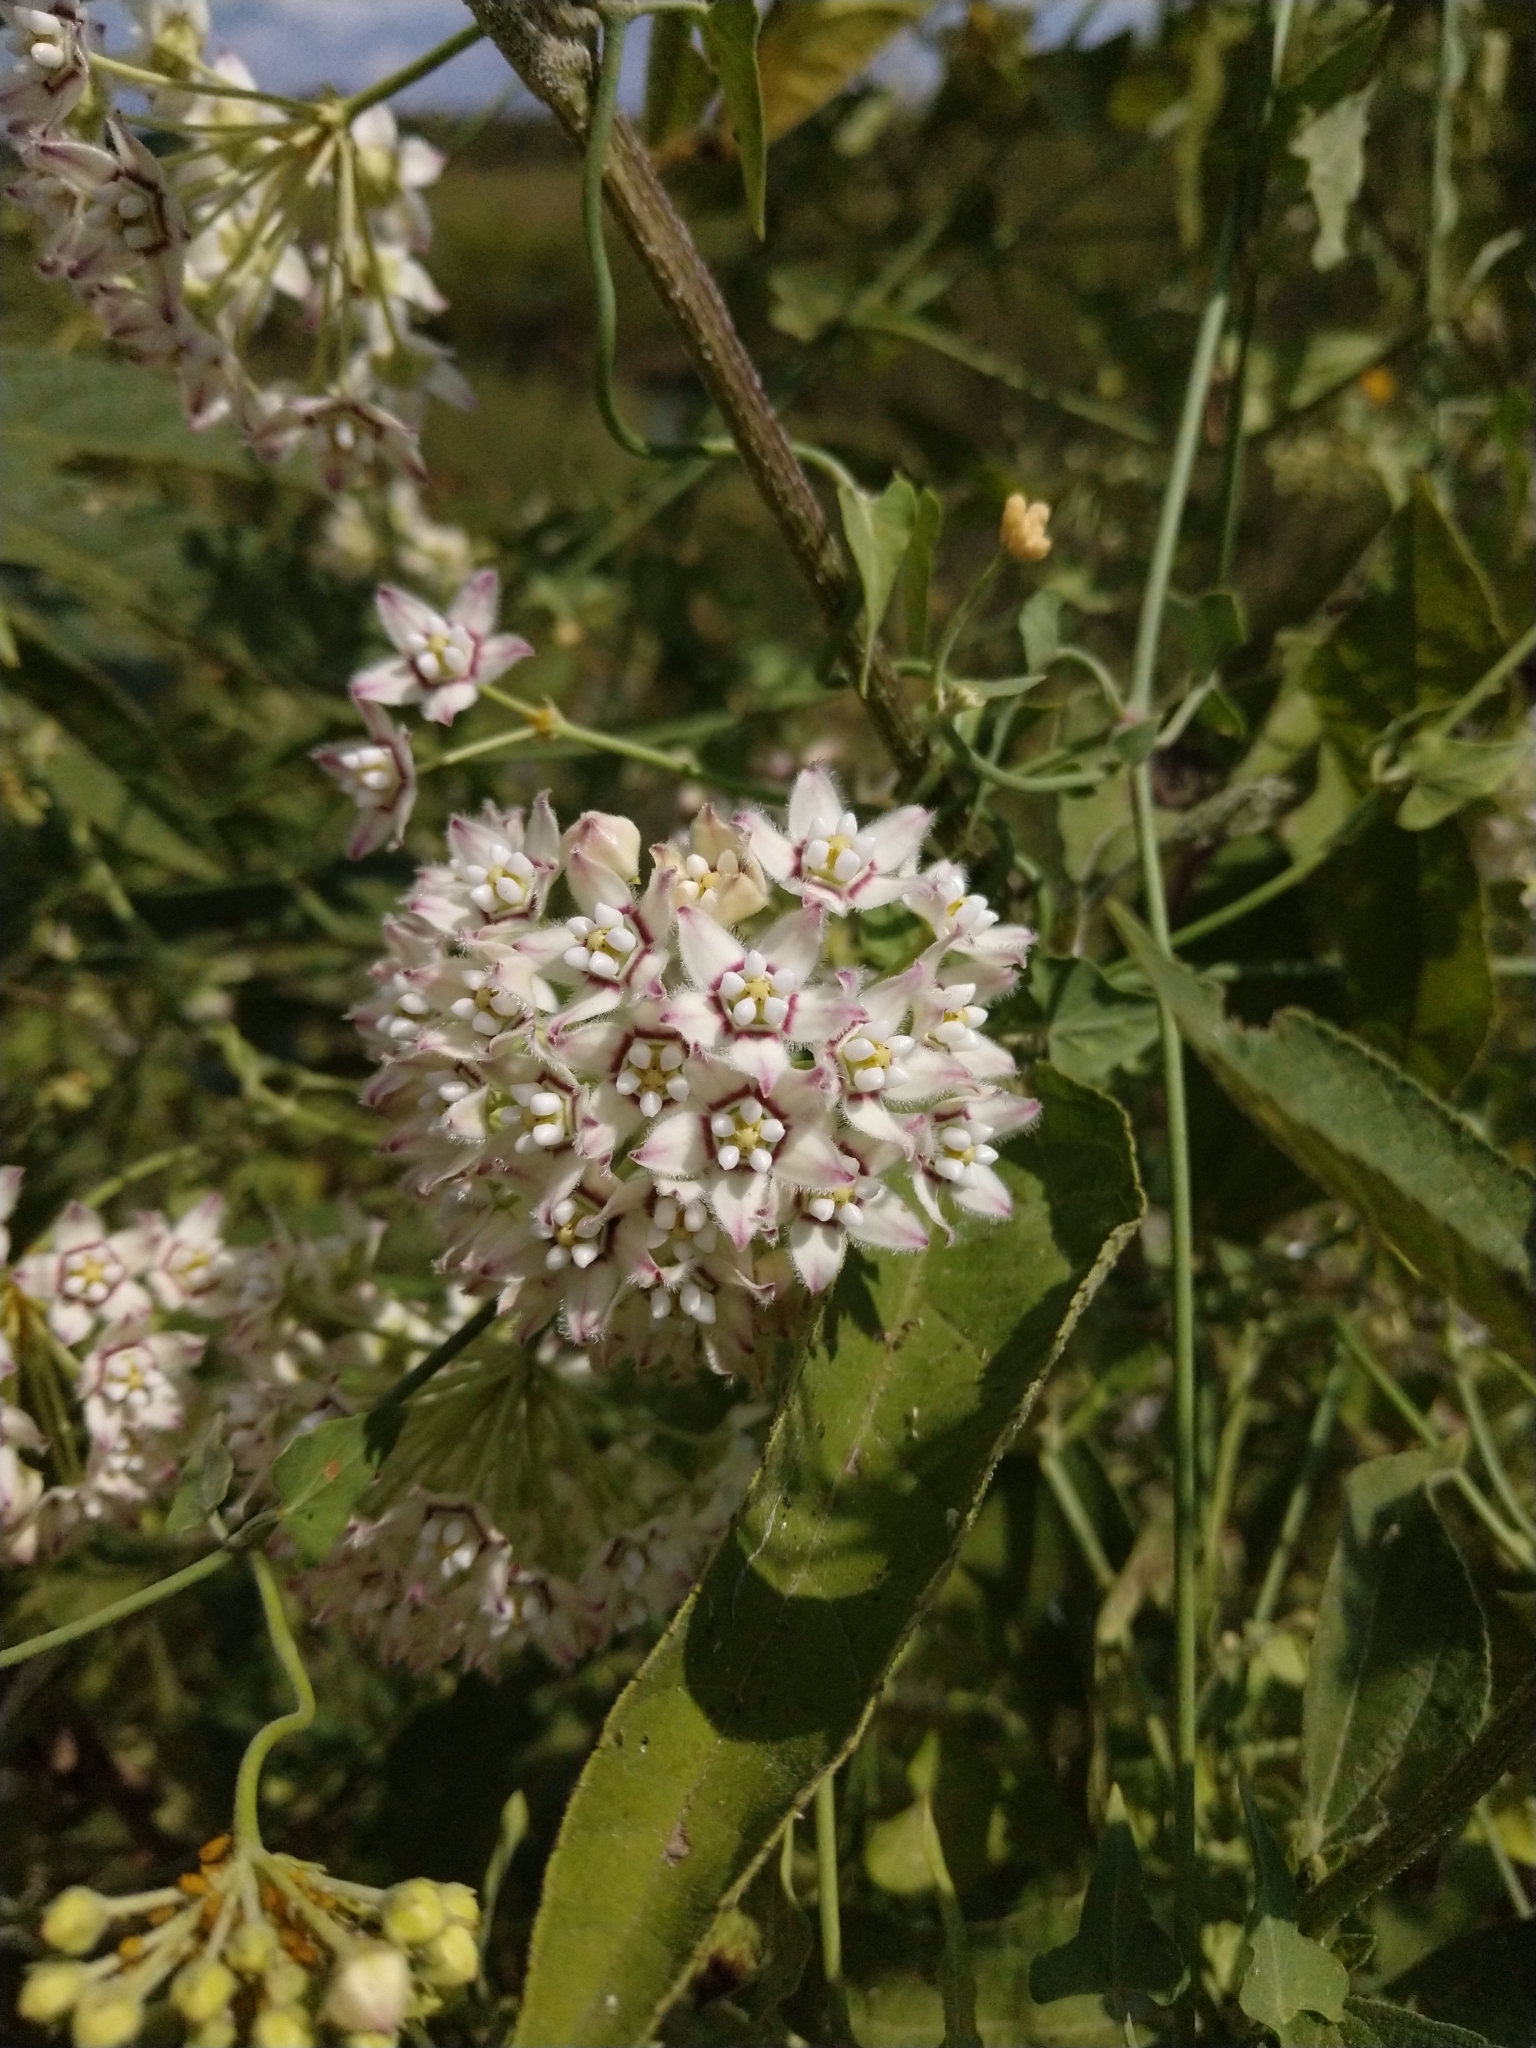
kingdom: Plantae
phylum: Tracheophyta
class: Magnoliopsida
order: Gentianales
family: Apocynaceae
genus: Funastrum
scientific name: Funastrum cynanchoides
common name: Climbing-milkweed
